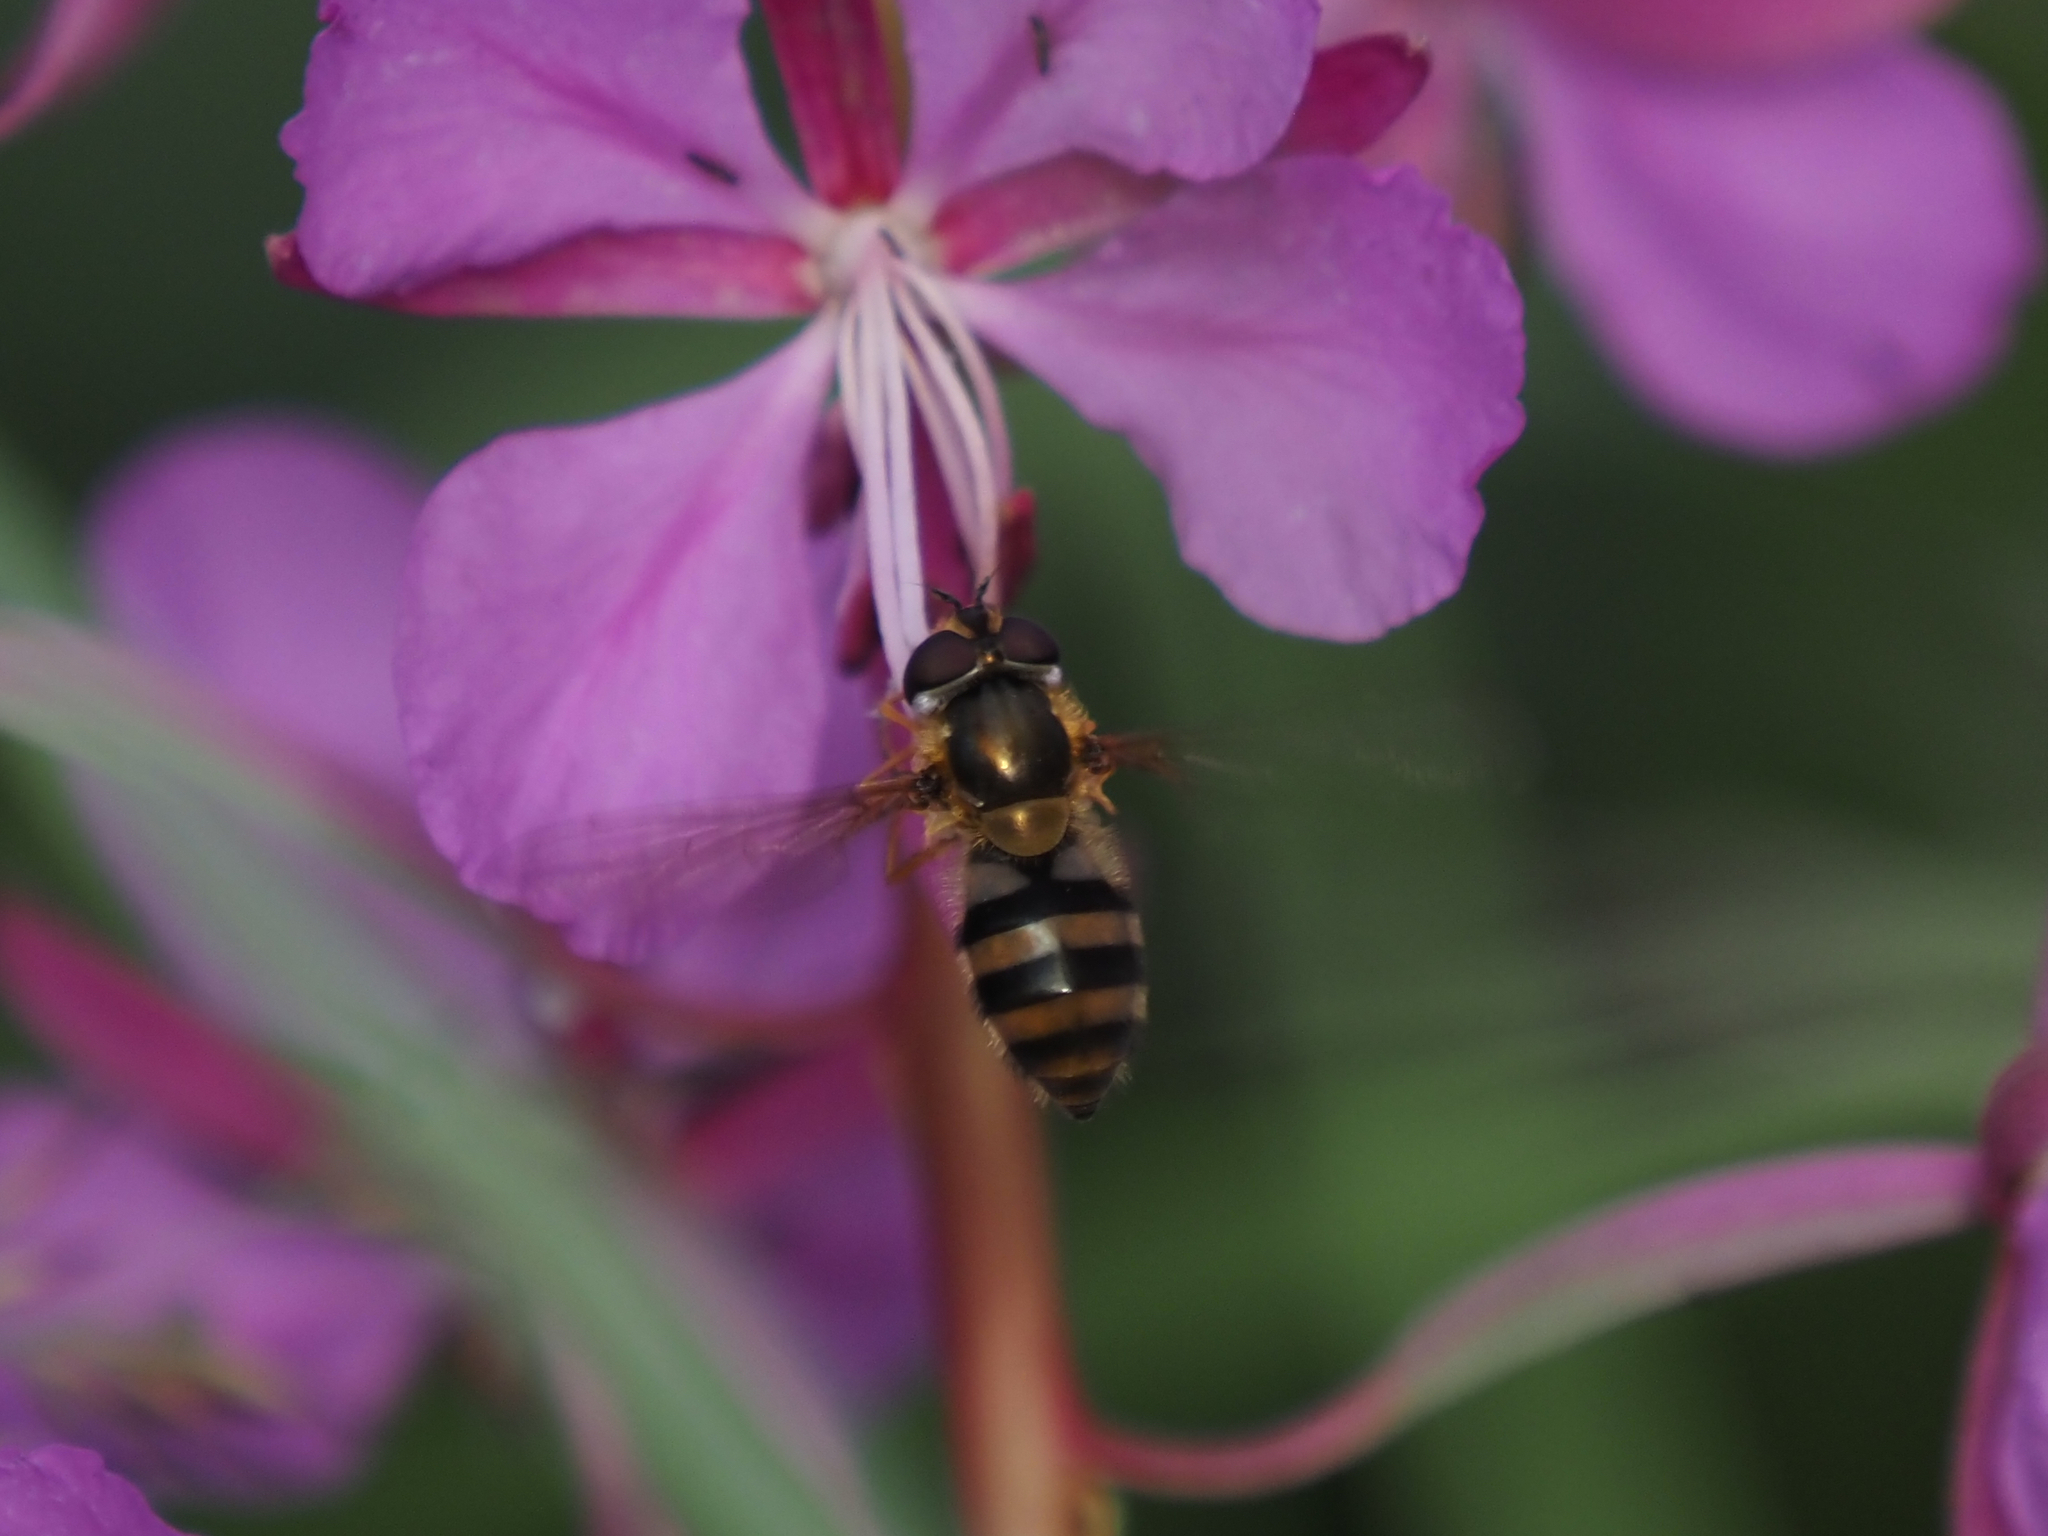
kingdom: Animalia
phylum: Arthropoda
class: Insecta
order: Diptera
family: Syrphidae
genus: Epistrophe
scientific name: Epistrophe grossulariae
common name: Black-horned smoothtail
